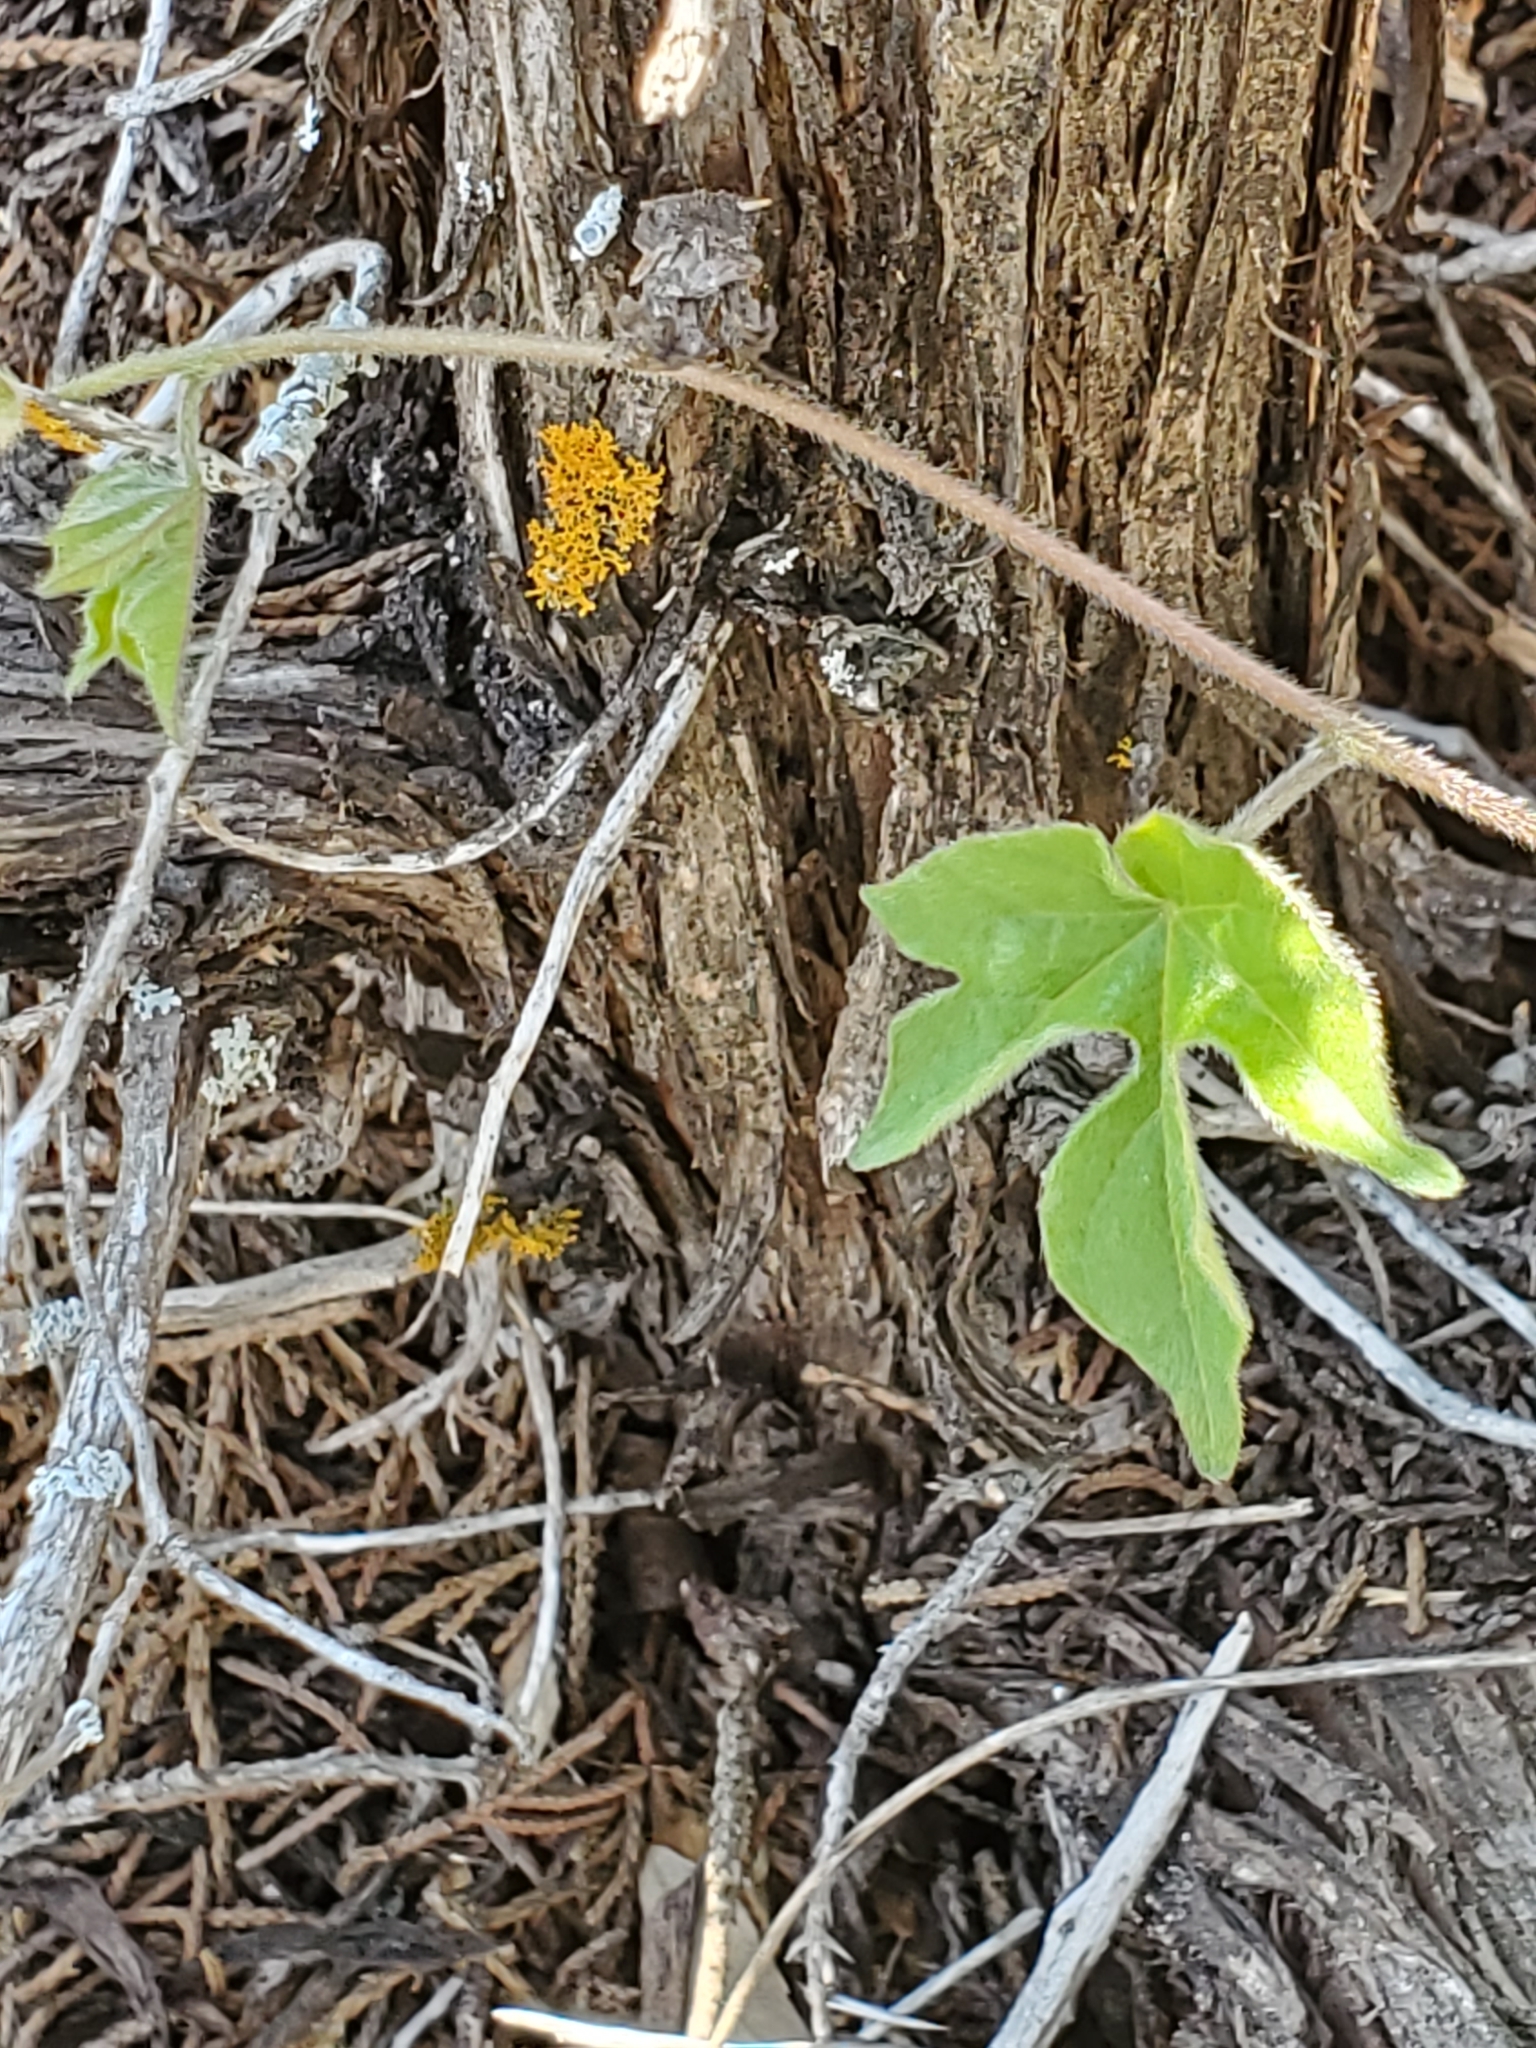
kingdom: Plantae
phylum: Tracheophyta
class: Magnoliopsida
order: Solanales
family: Convolvulaceae
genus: Ipomoea
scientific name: Ipomoea lindheimeri
